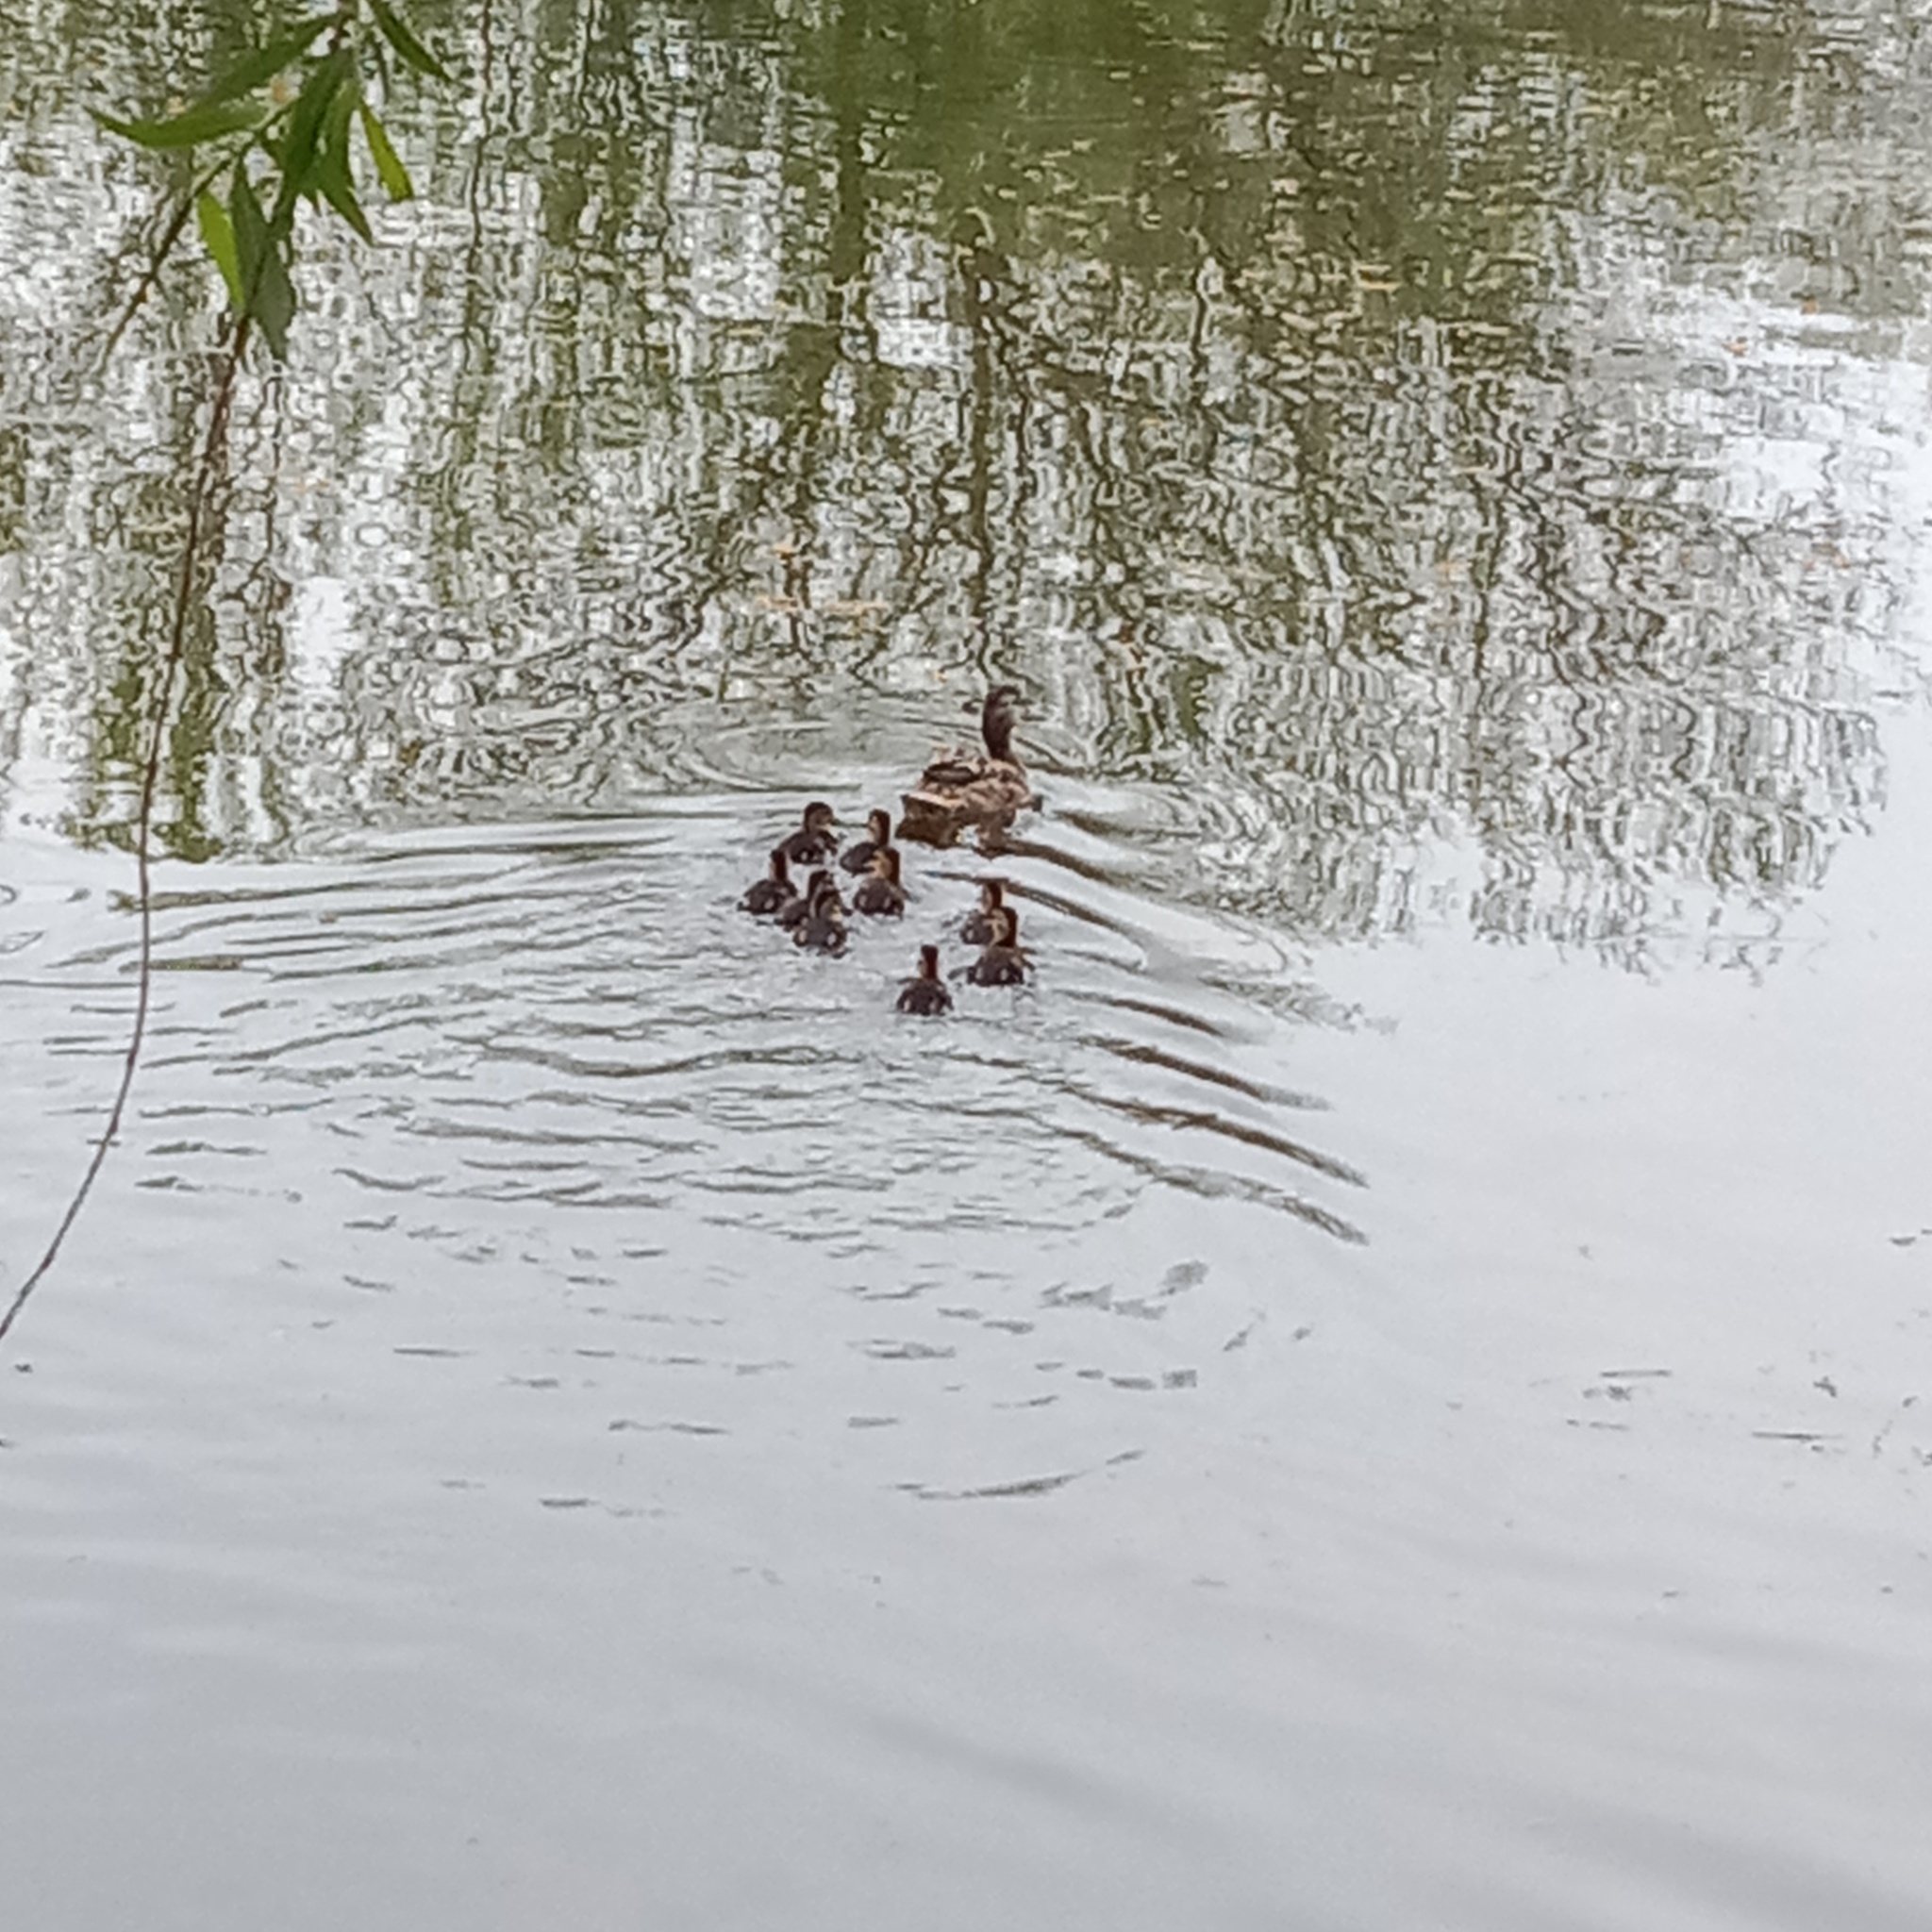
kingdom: Animalia
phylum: Chordata
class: Aves
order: Anseriformes
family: Anatidae
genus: Anas
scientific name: Anas platyrhynchos
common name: Mallard
